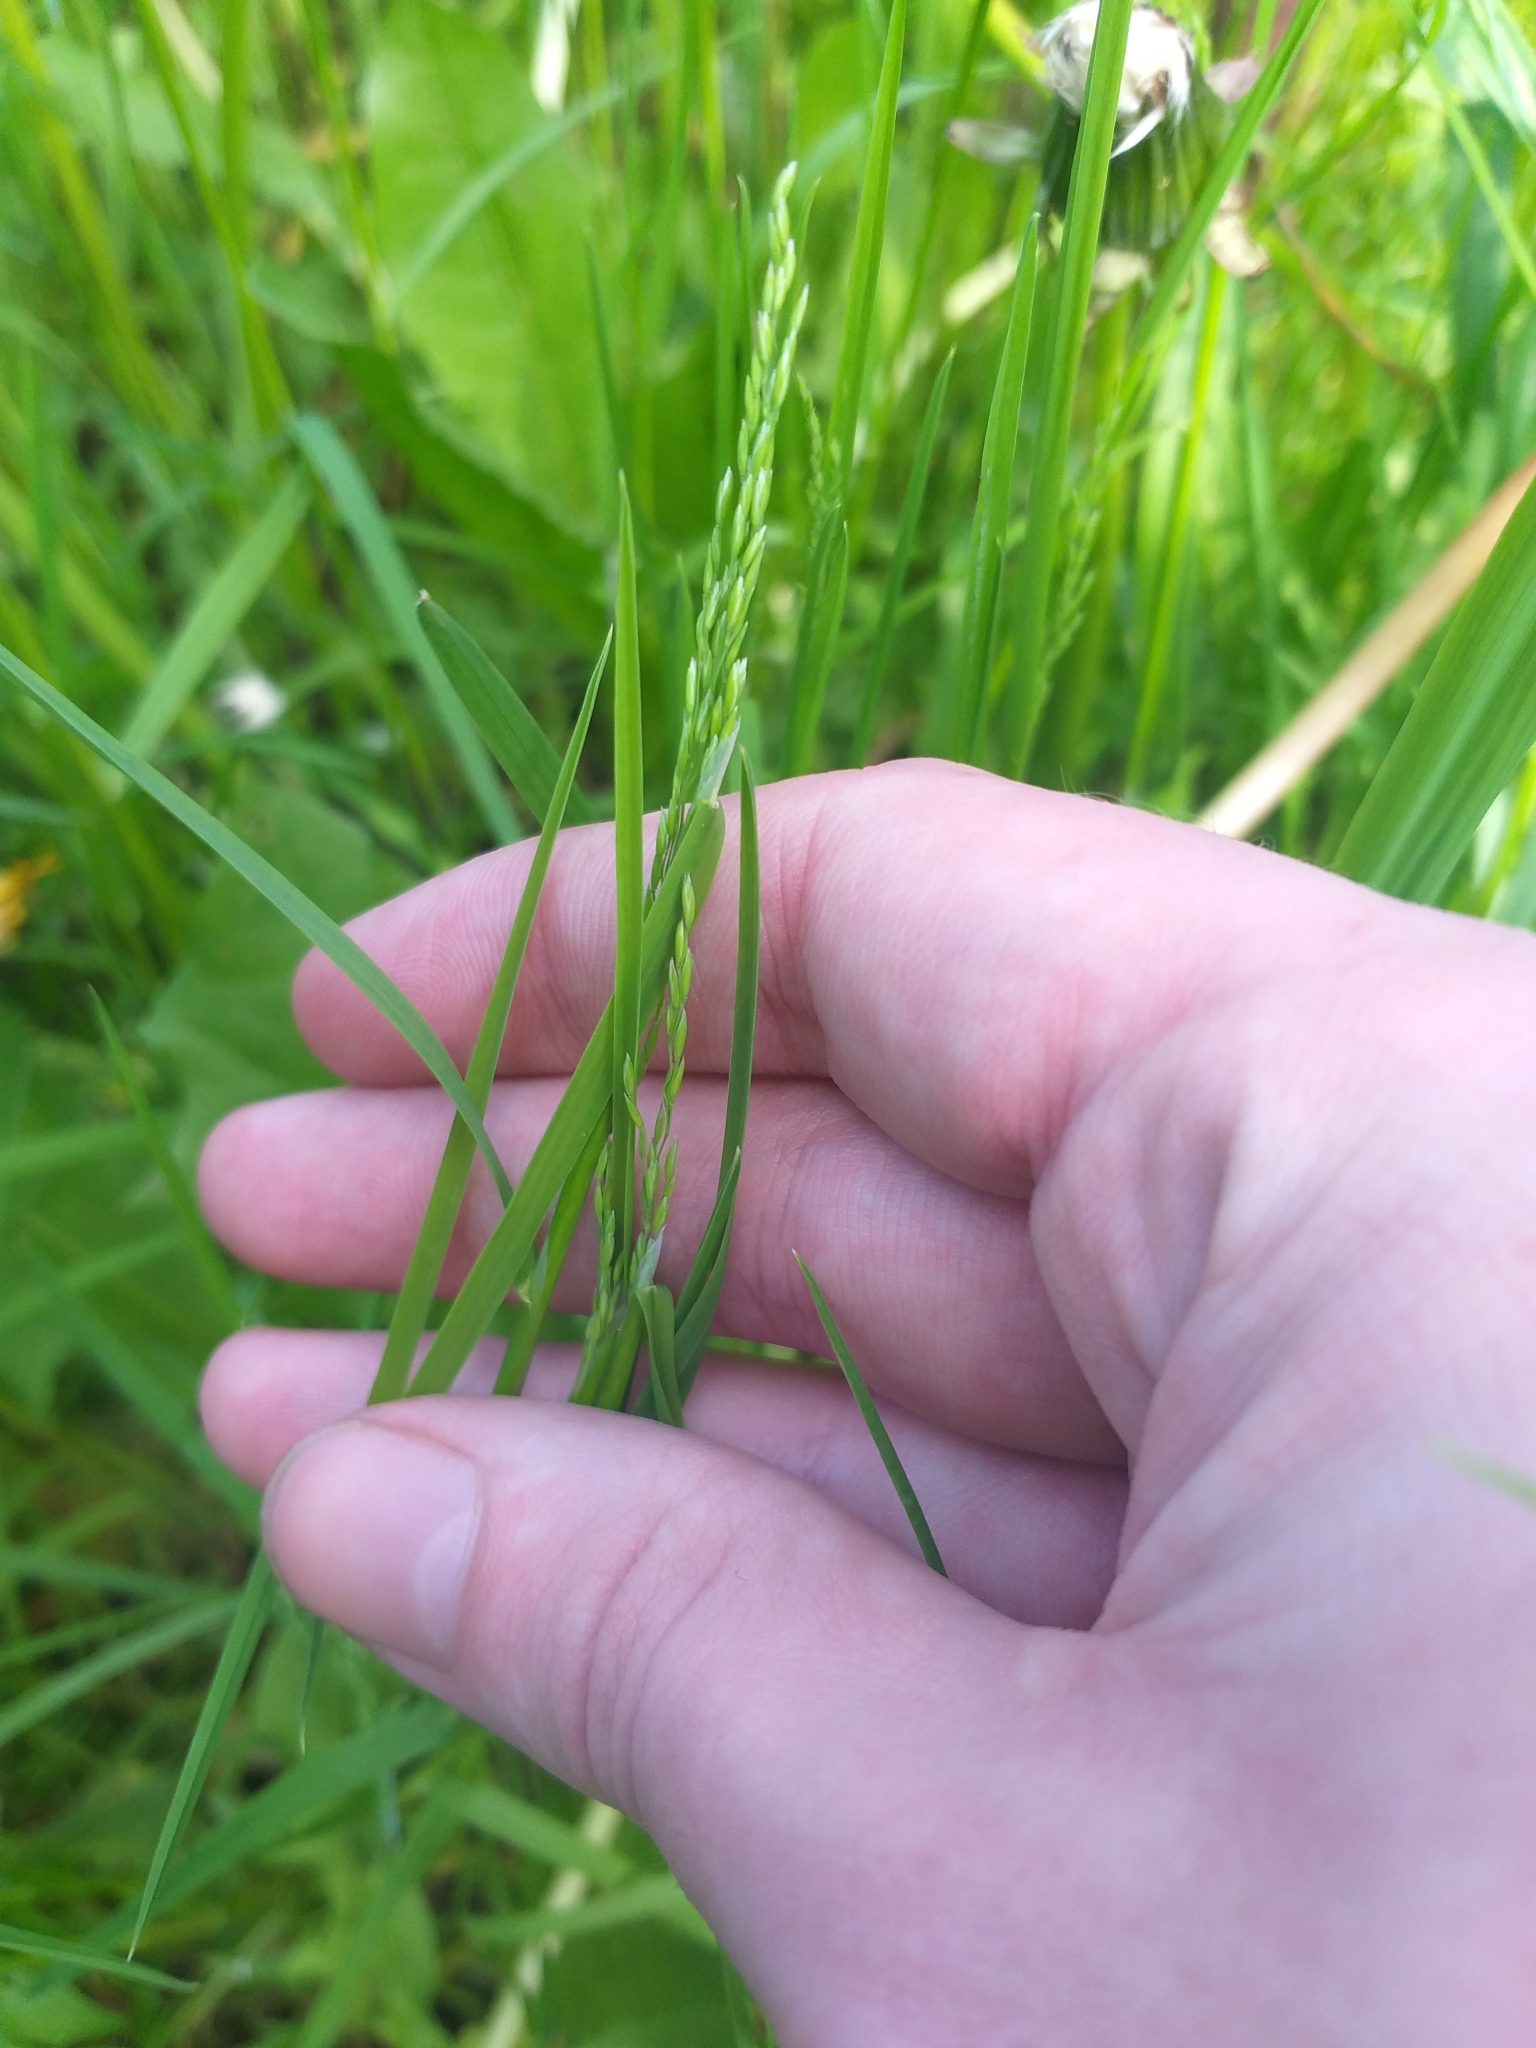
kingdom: Plantae
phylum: Tracheophyta
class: Liliopsida
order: Poales
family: Poaceae
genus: Poa
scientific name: Poa trivialis
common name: Rough bluegrass
